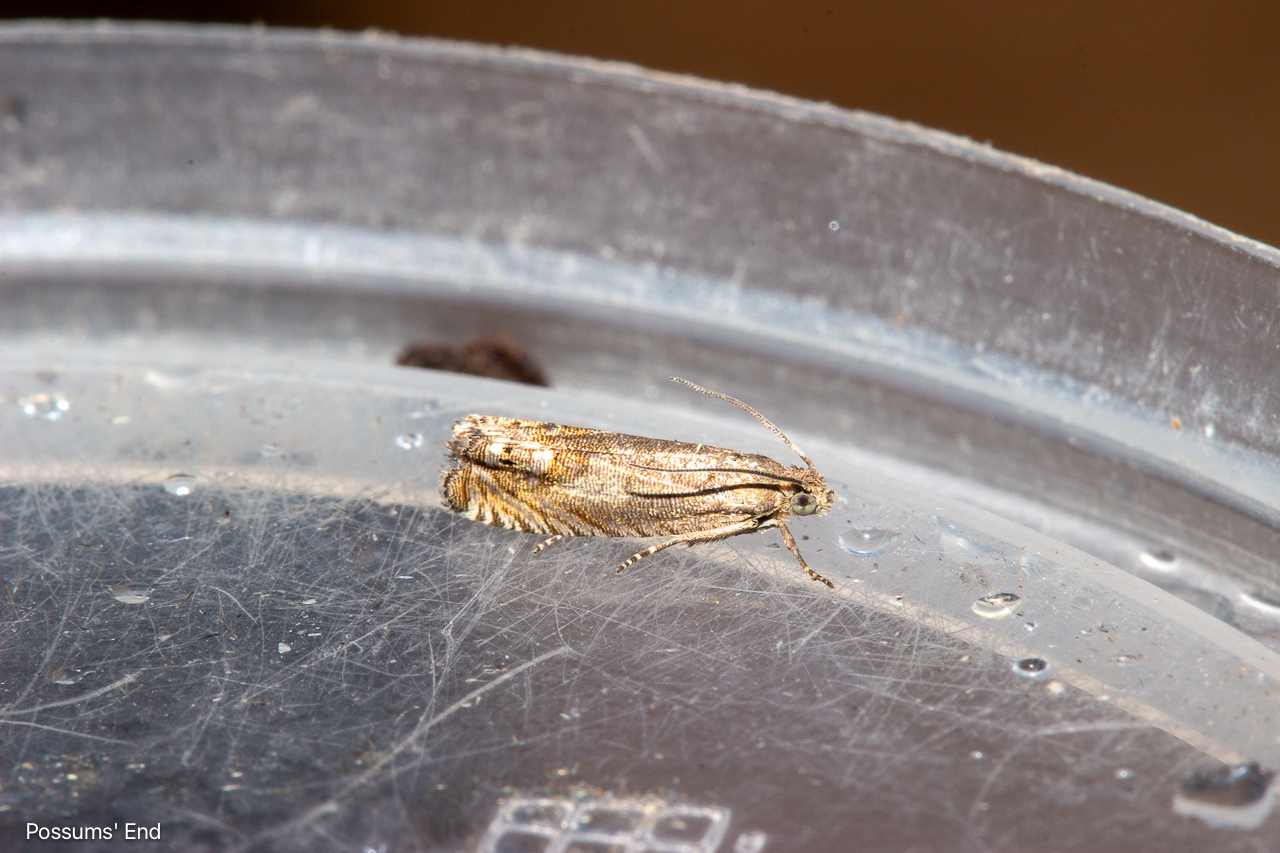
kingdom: Animalia
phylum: Arthropoda
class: Insecta
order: Lepidoptera
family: Tortricidae
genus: Cydia
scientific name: Cydia succedana
